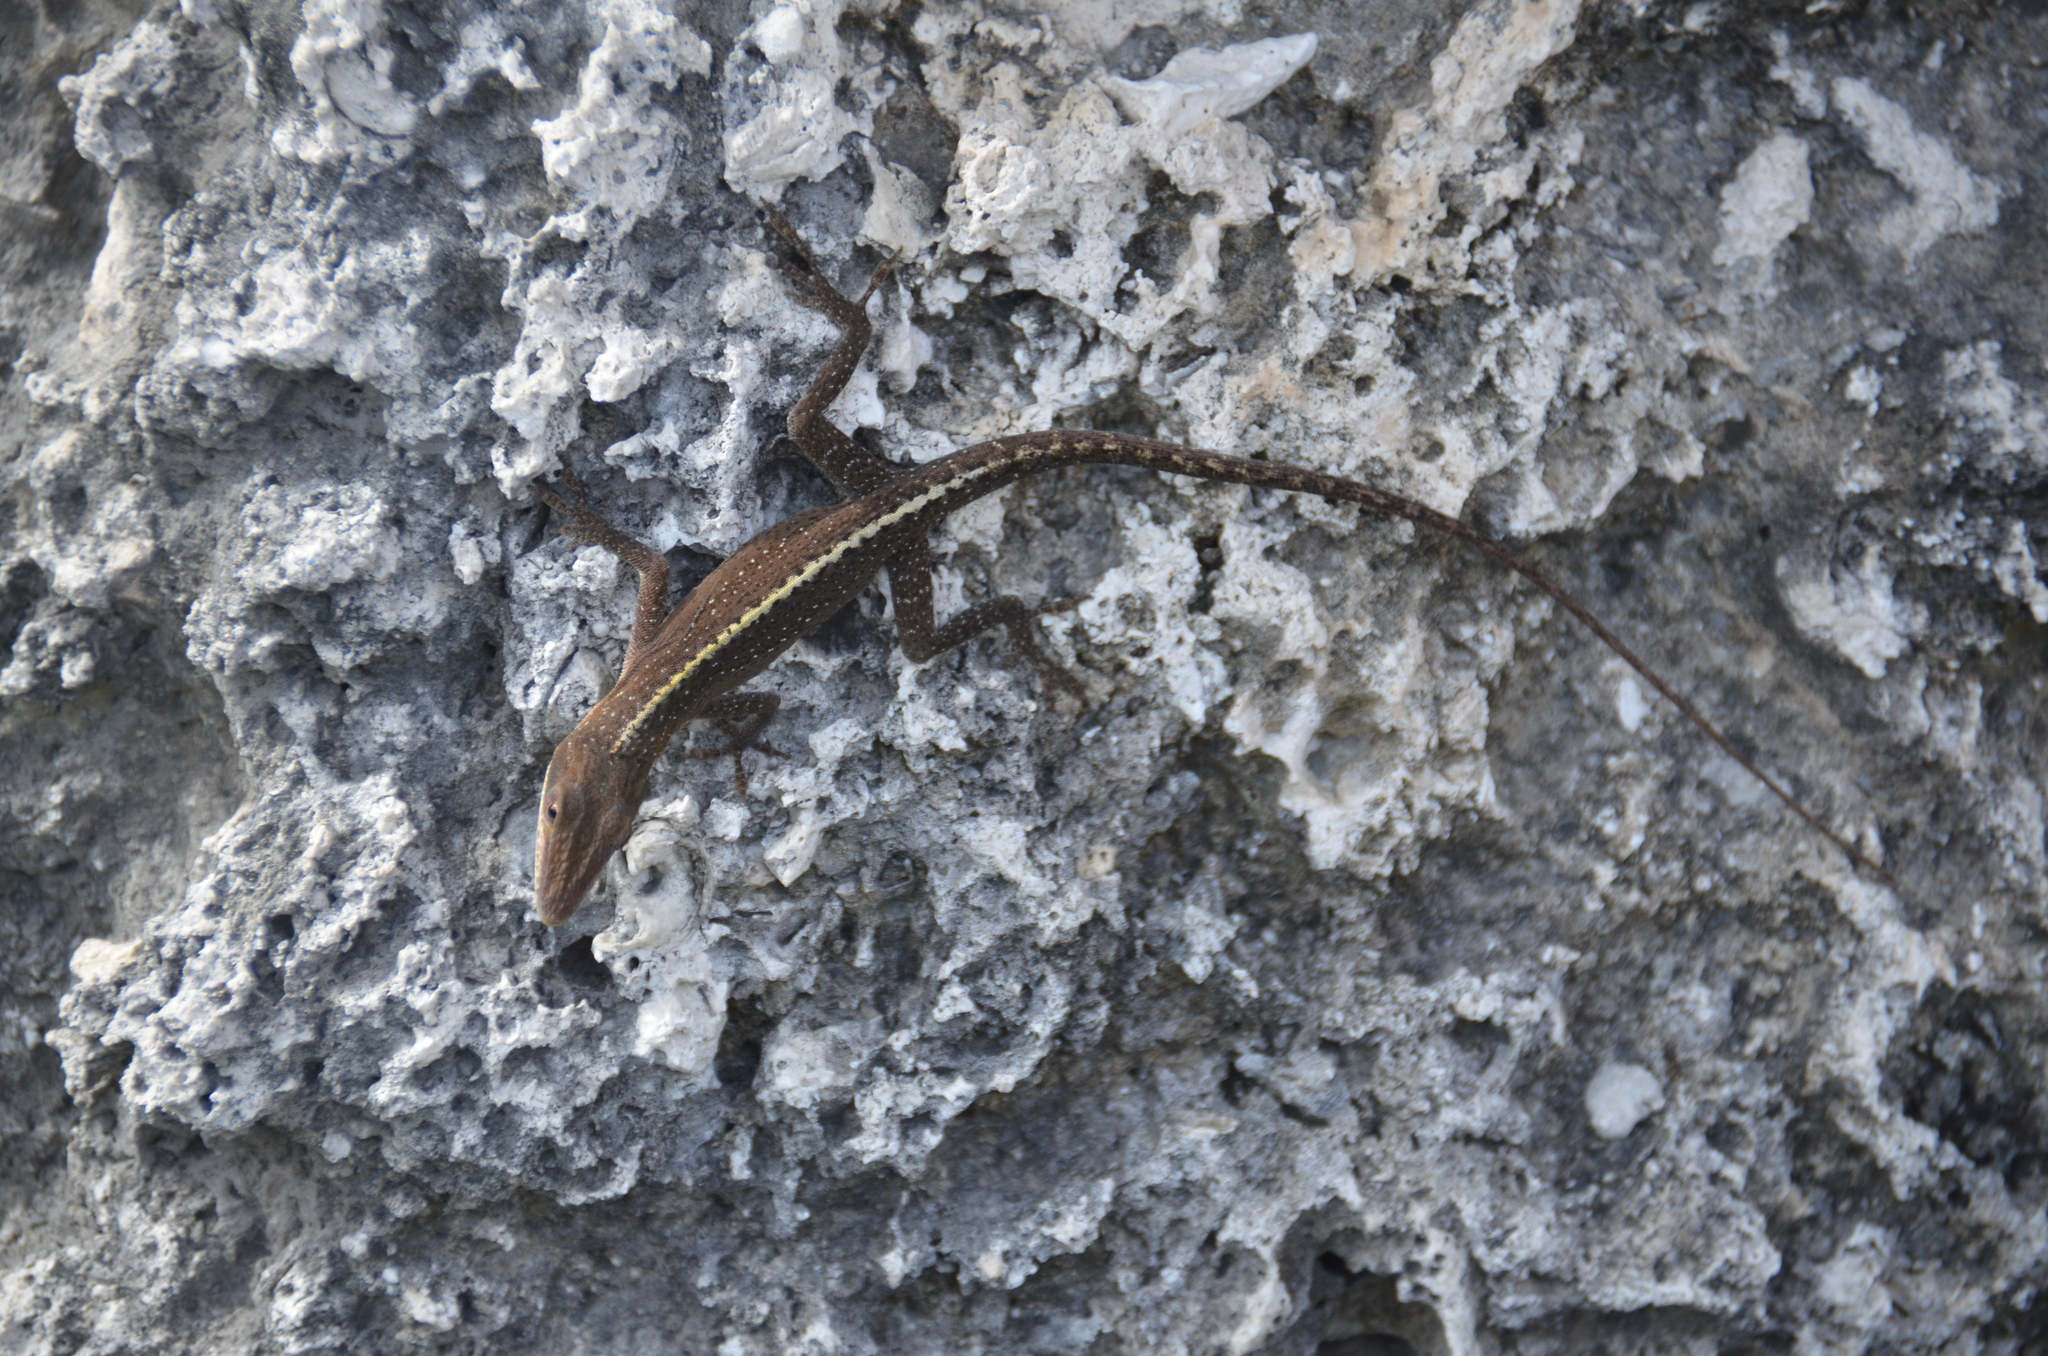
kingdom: Animalia
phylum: Chordata
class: Squamata
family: Dactyloidae
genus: Anolis
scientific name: Anolis carolinensis
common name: Green anole
